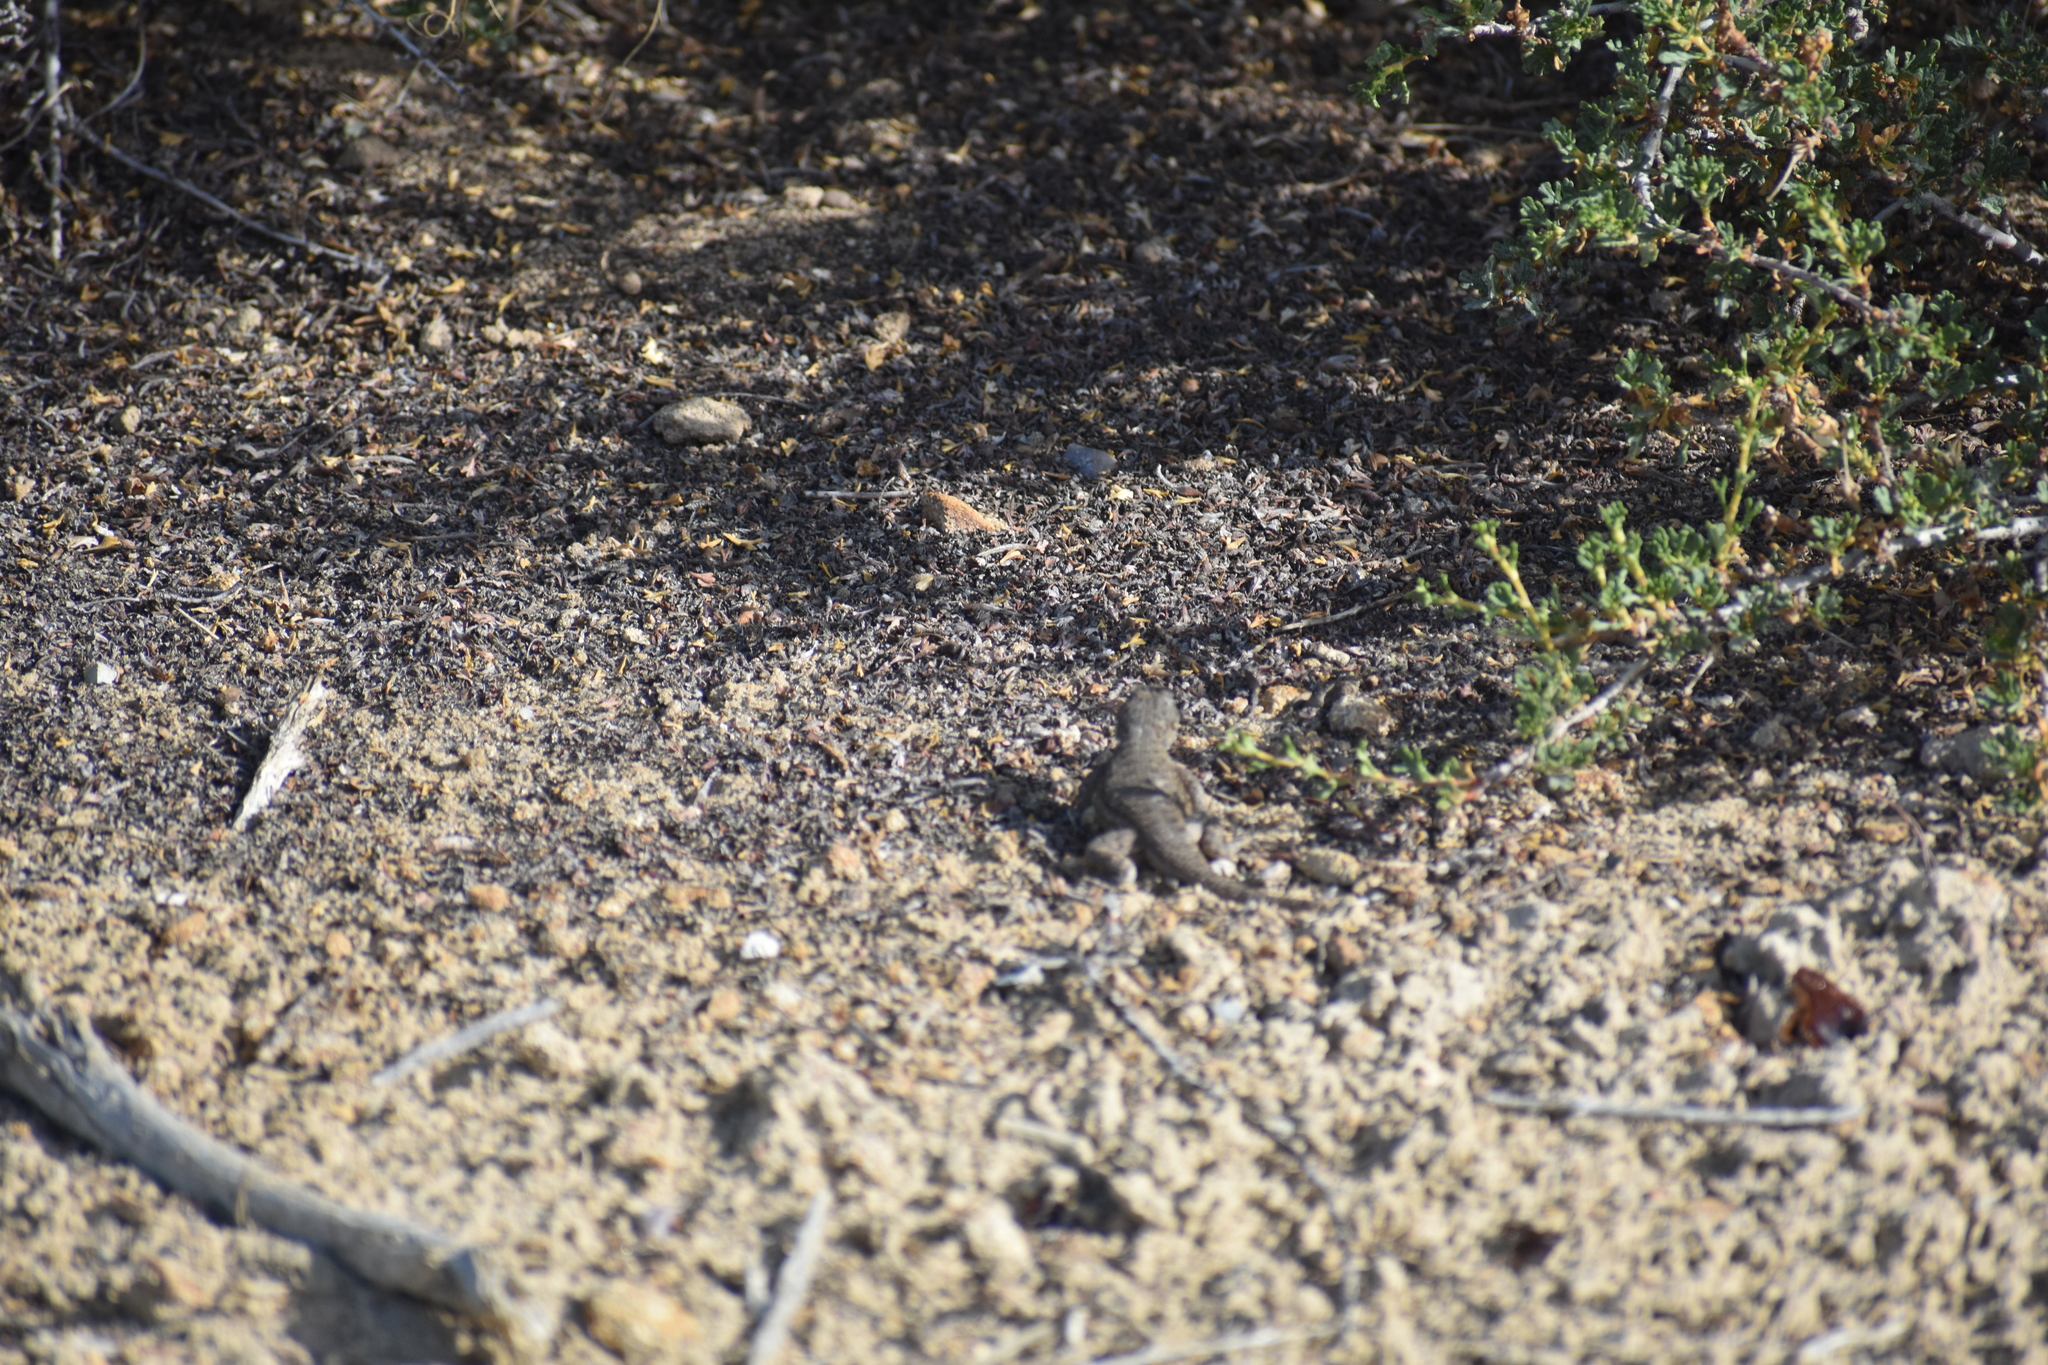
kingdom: Animalia
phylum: Chordata
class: Squamata
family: Phrynosomatidae
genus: Sceloporus
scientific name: Sceloporus tristichus
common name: Plateau fence lizard
